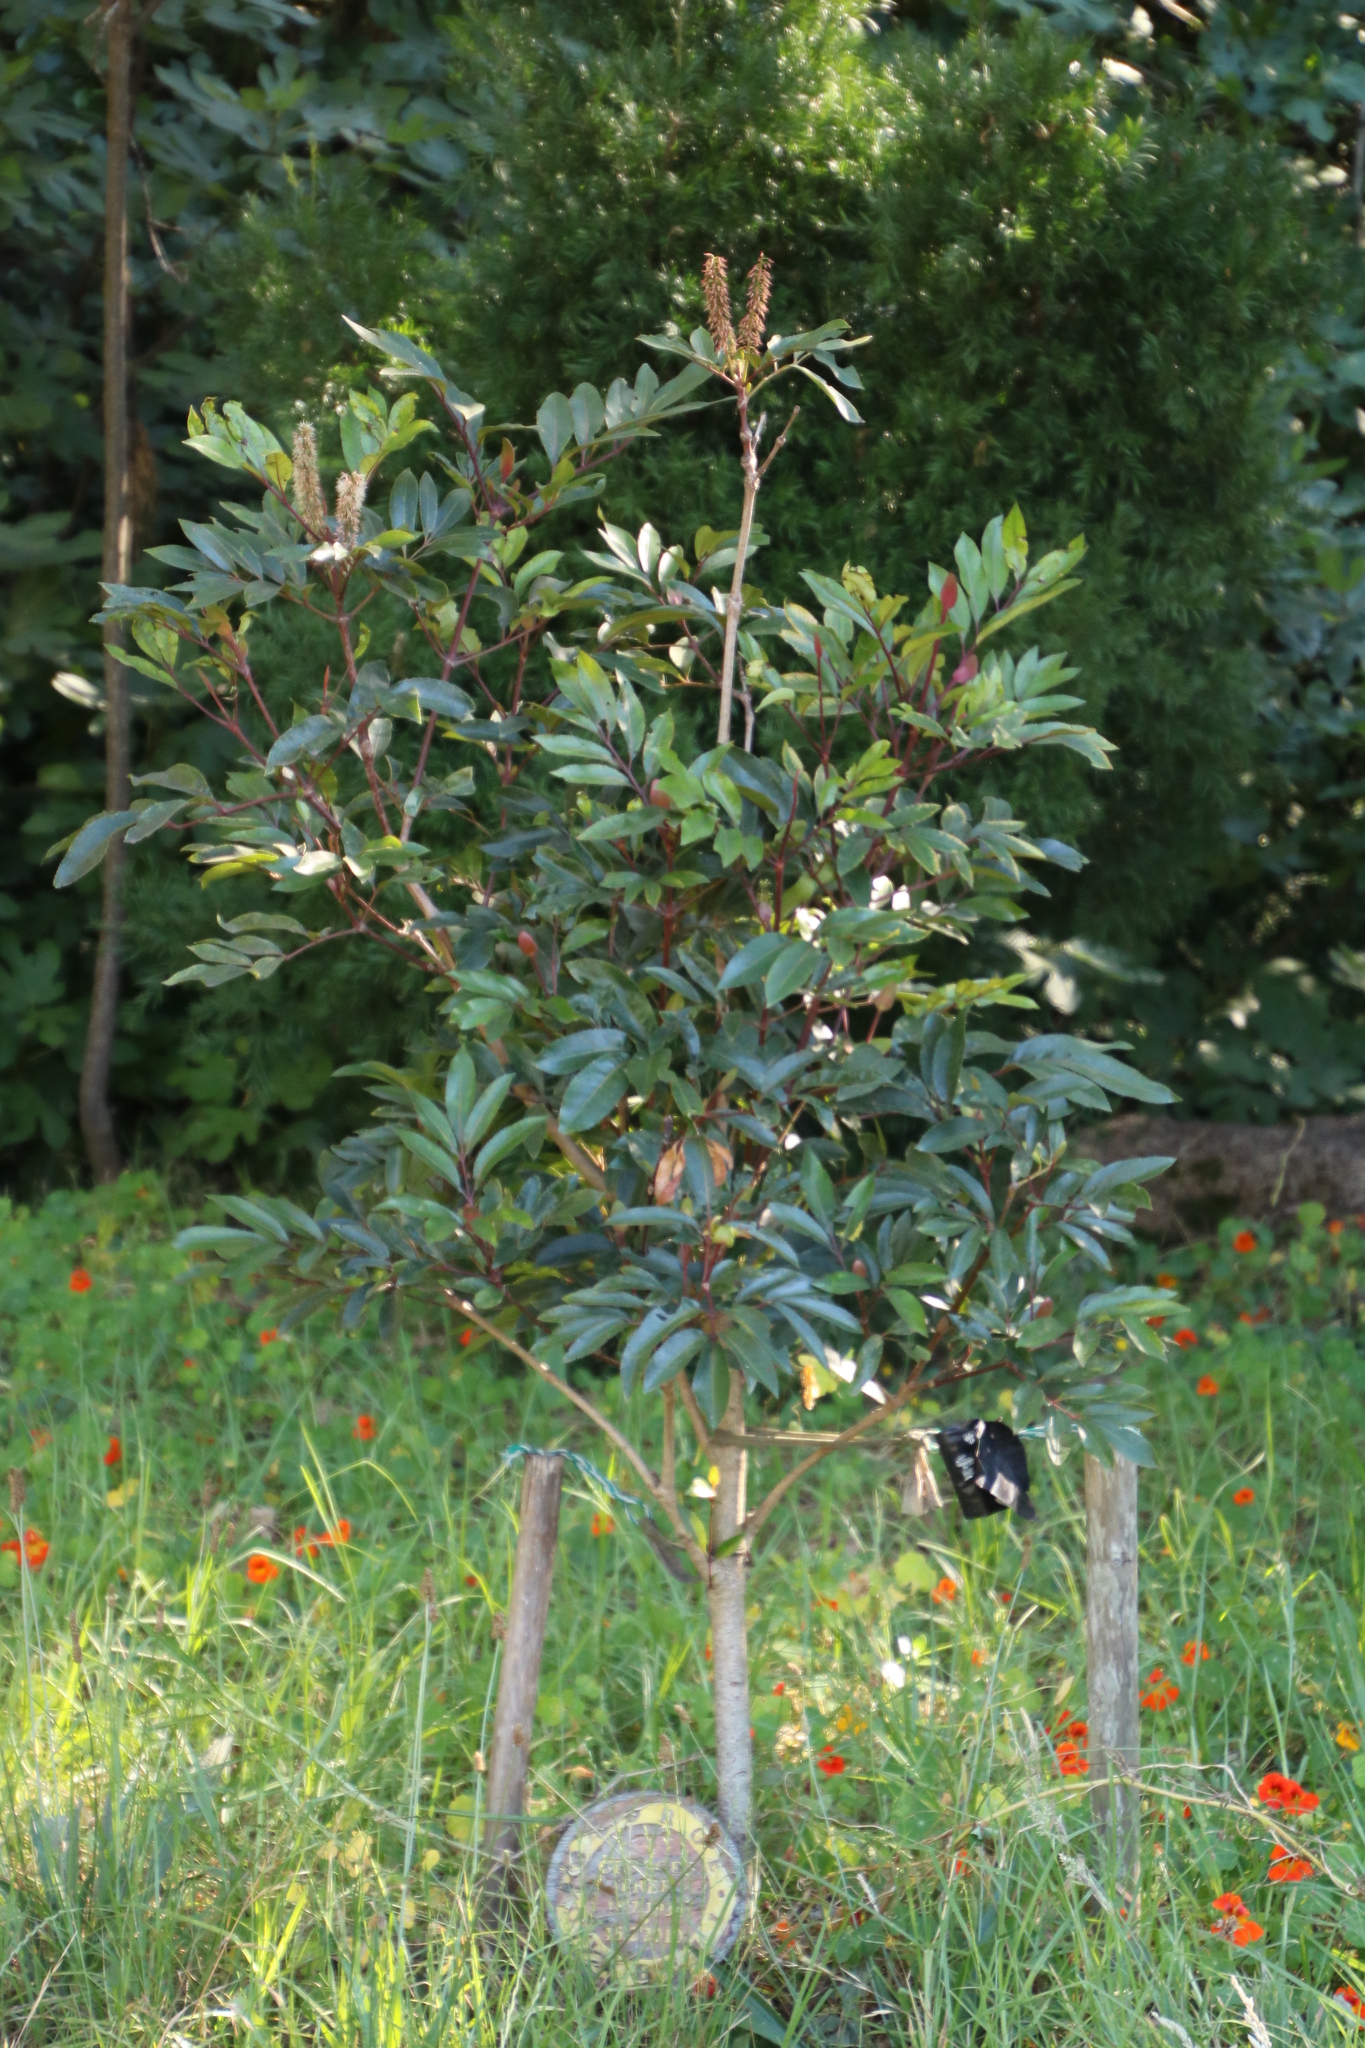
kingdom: Plantae
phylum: Tracheophyta
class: Magnoliopsida
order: Oxalidales
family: Cunoniaceae
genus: Cunonia
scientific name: Cunonia capensis
